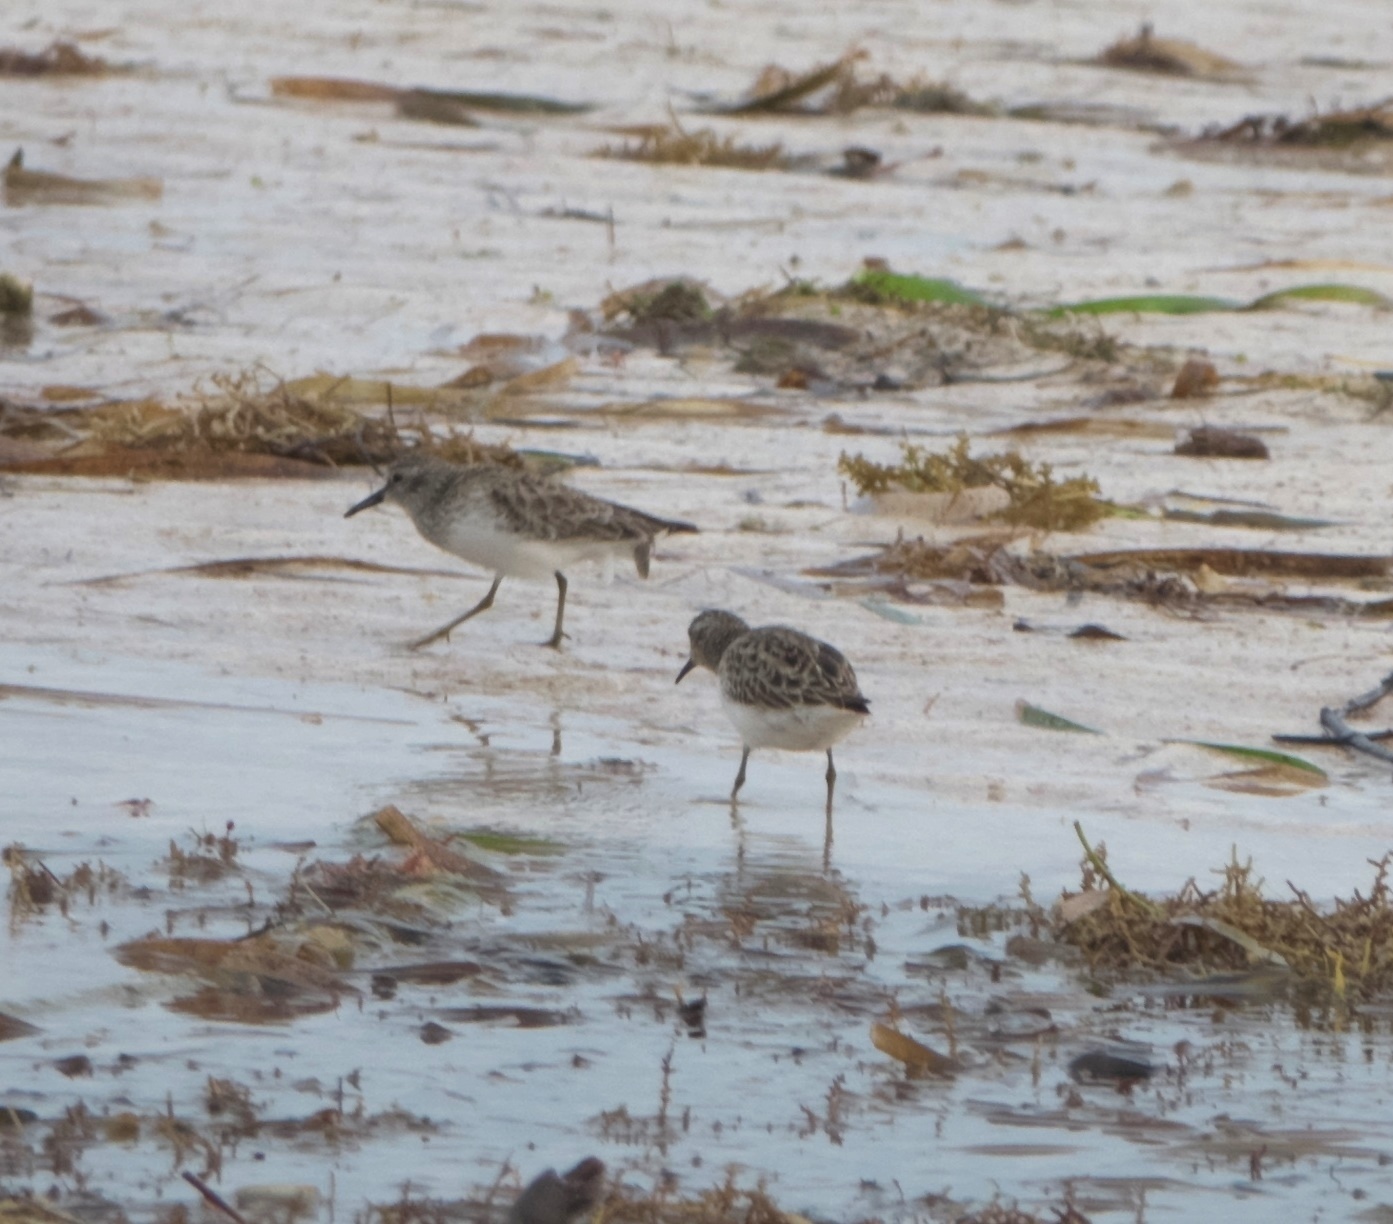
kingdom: Animalia
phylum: Chordata
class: Aves
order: Charadriiformes
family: Scolopacidae
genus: Calidris
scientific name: Calidris minutilla
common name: Least sandpiper
